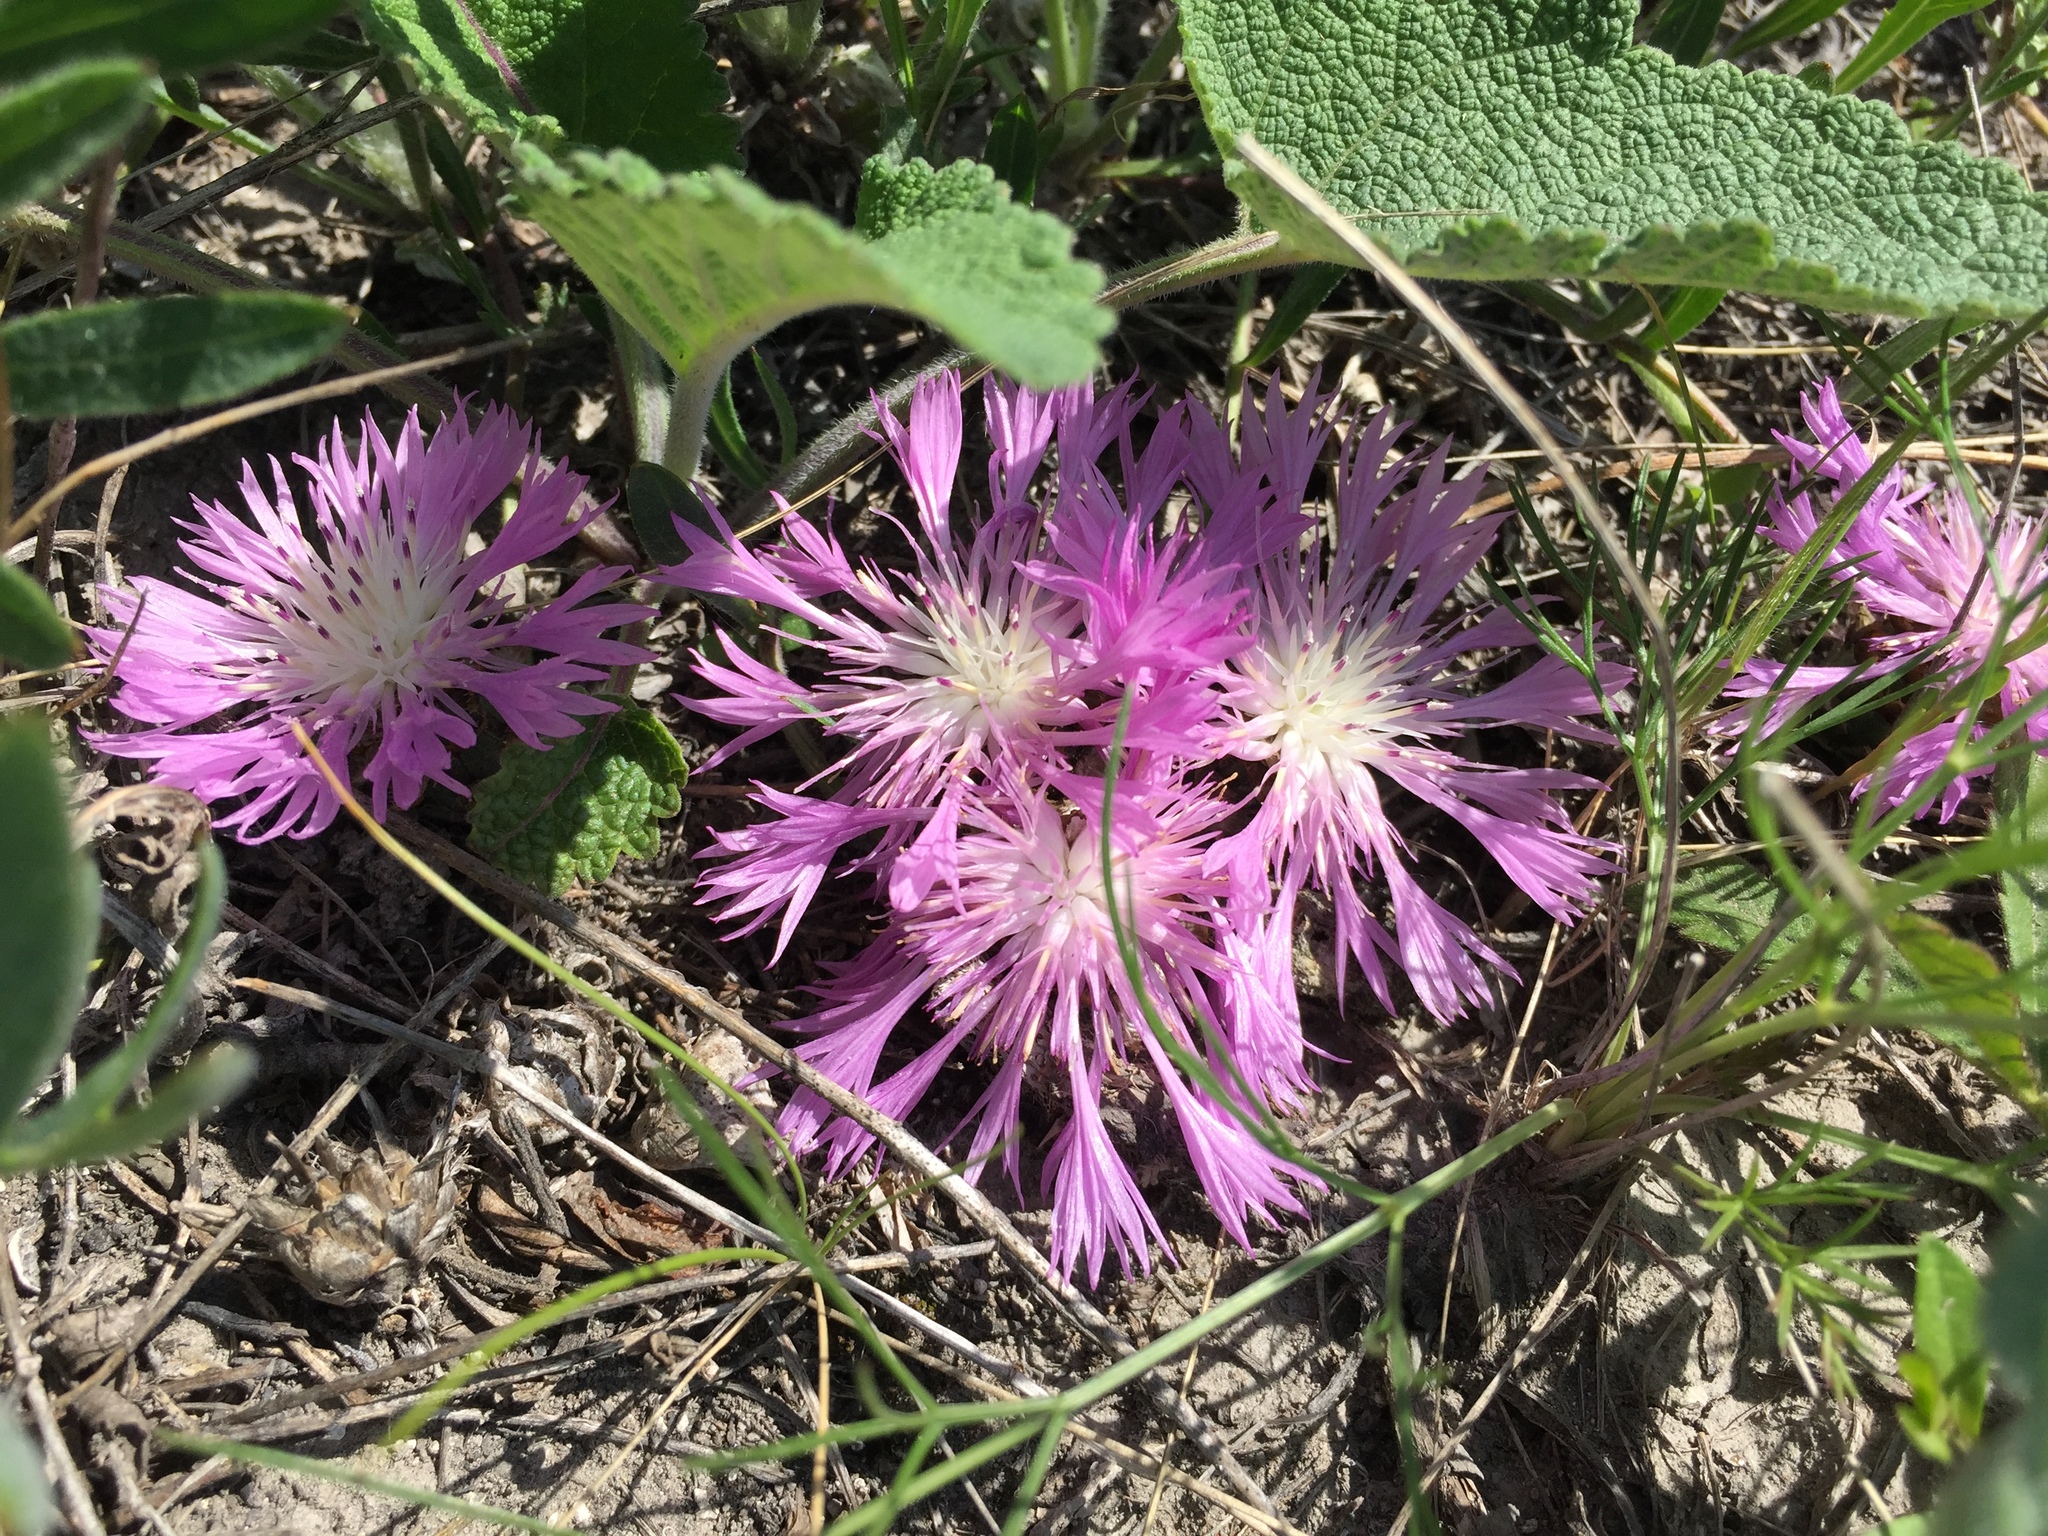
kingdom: Plantae
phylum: Tracheophyta
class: Magnoliopsida
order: Asterales
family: Asteraceae
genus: Psephellus
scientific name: Psephellus marschallianus
